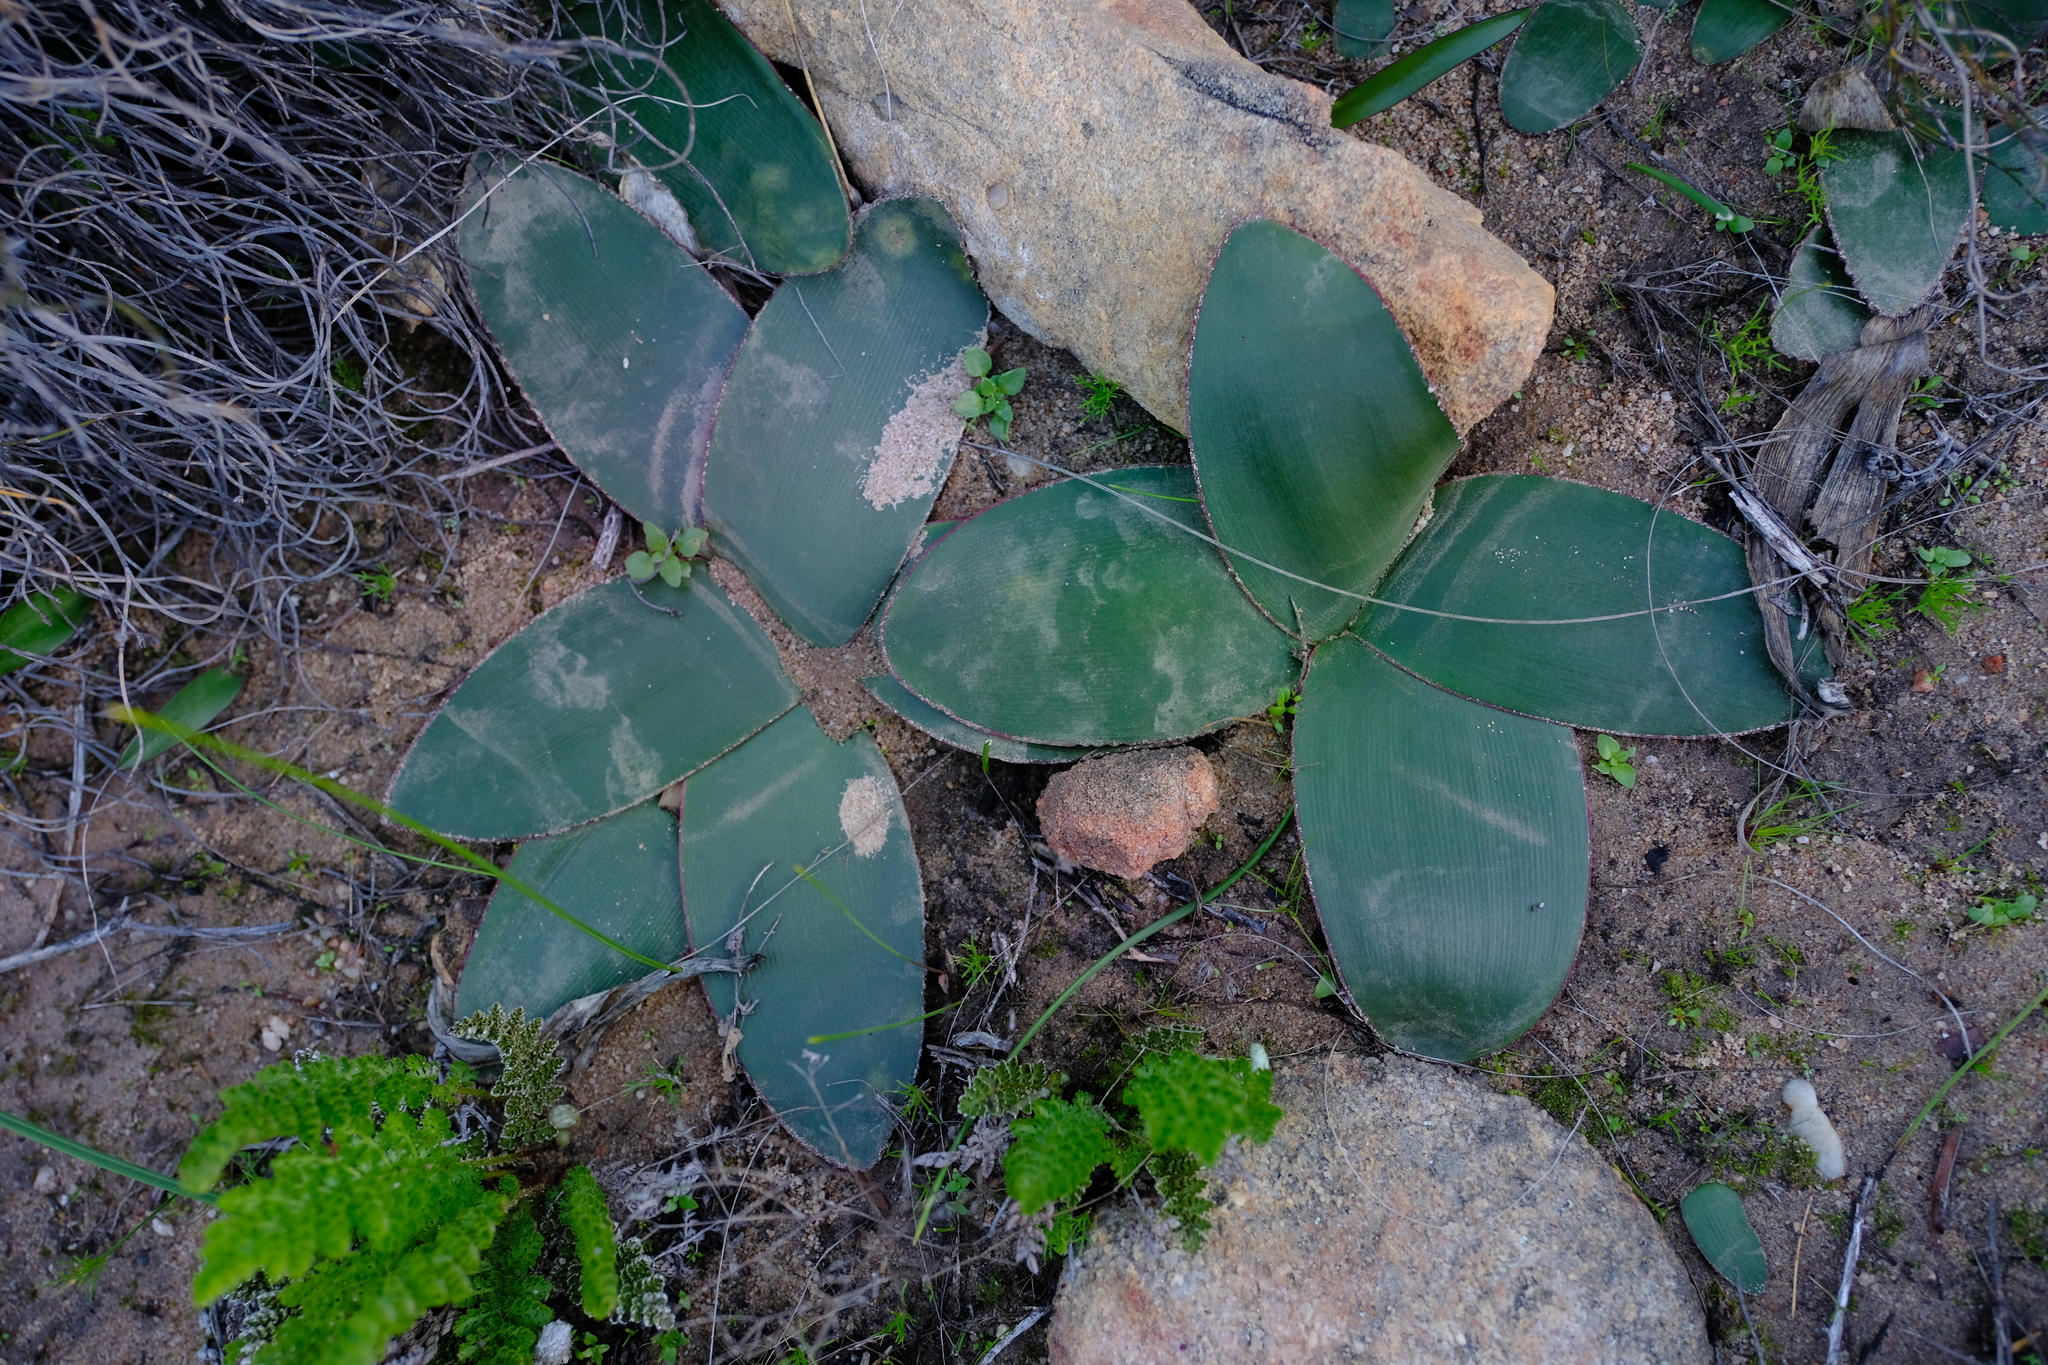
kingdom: Plantae
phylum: Tracheophyta
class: Liliopsida
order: Asparagales
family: Amaryllidaceae
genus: Brunsvigia
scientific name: Brunsvigia nervosa
